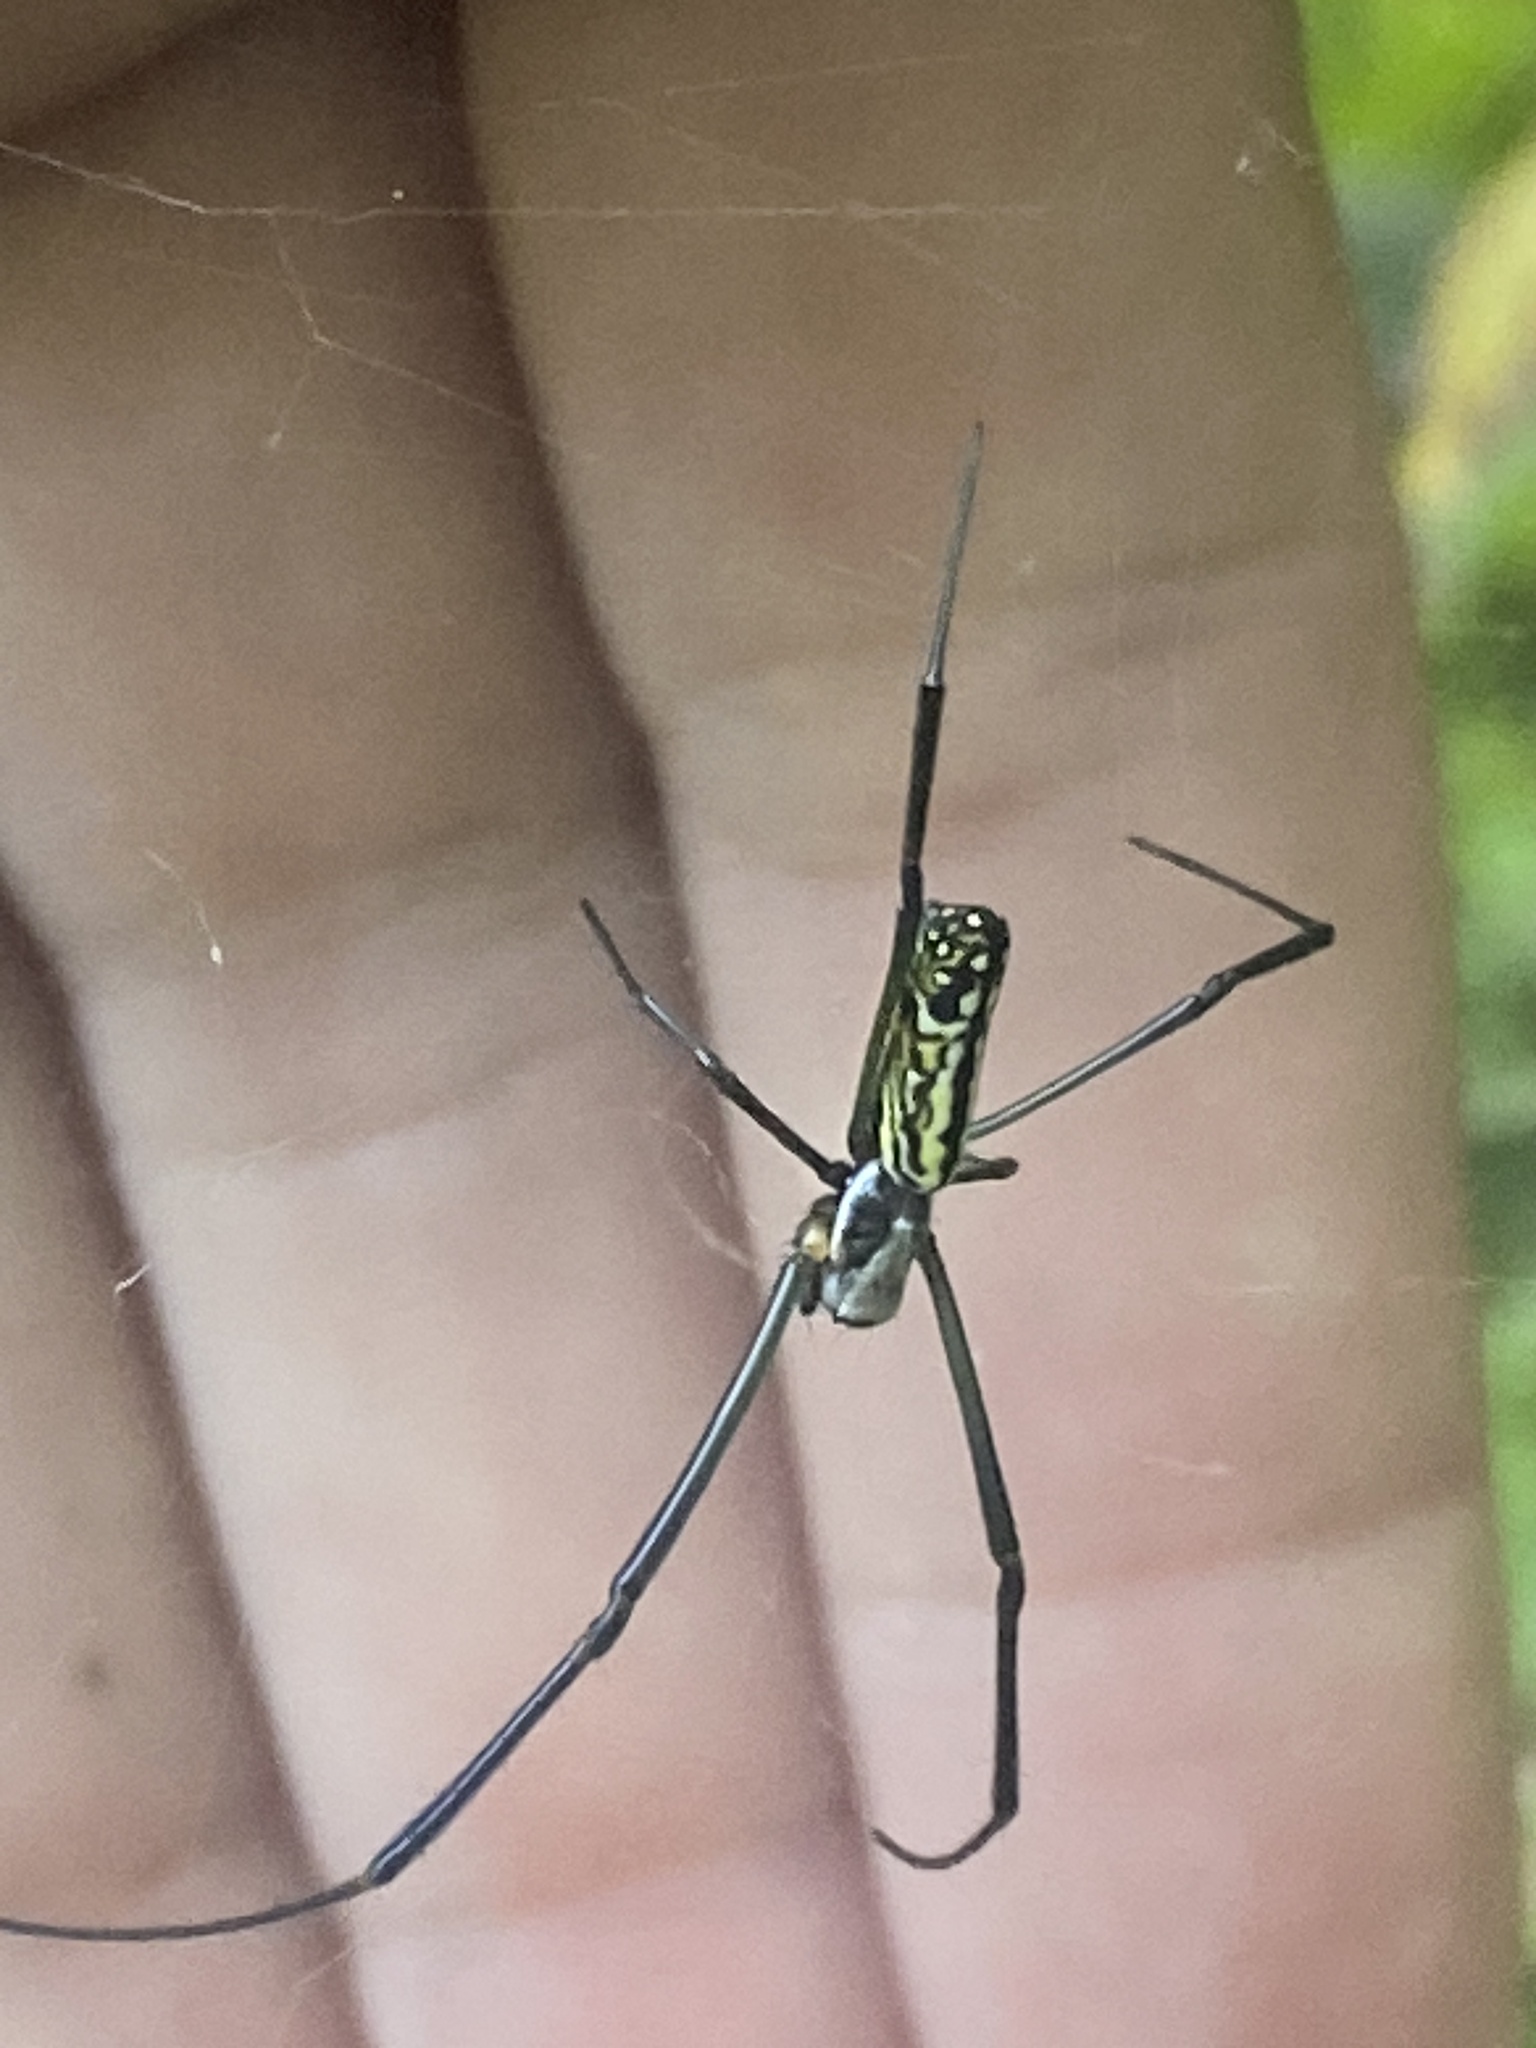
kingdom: Animalia
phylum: Arthropoda
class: Arachnida
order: Araneae
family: Araneidae
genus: Trichonephila
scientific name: Trichonephila clavata
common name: Jorō spider
